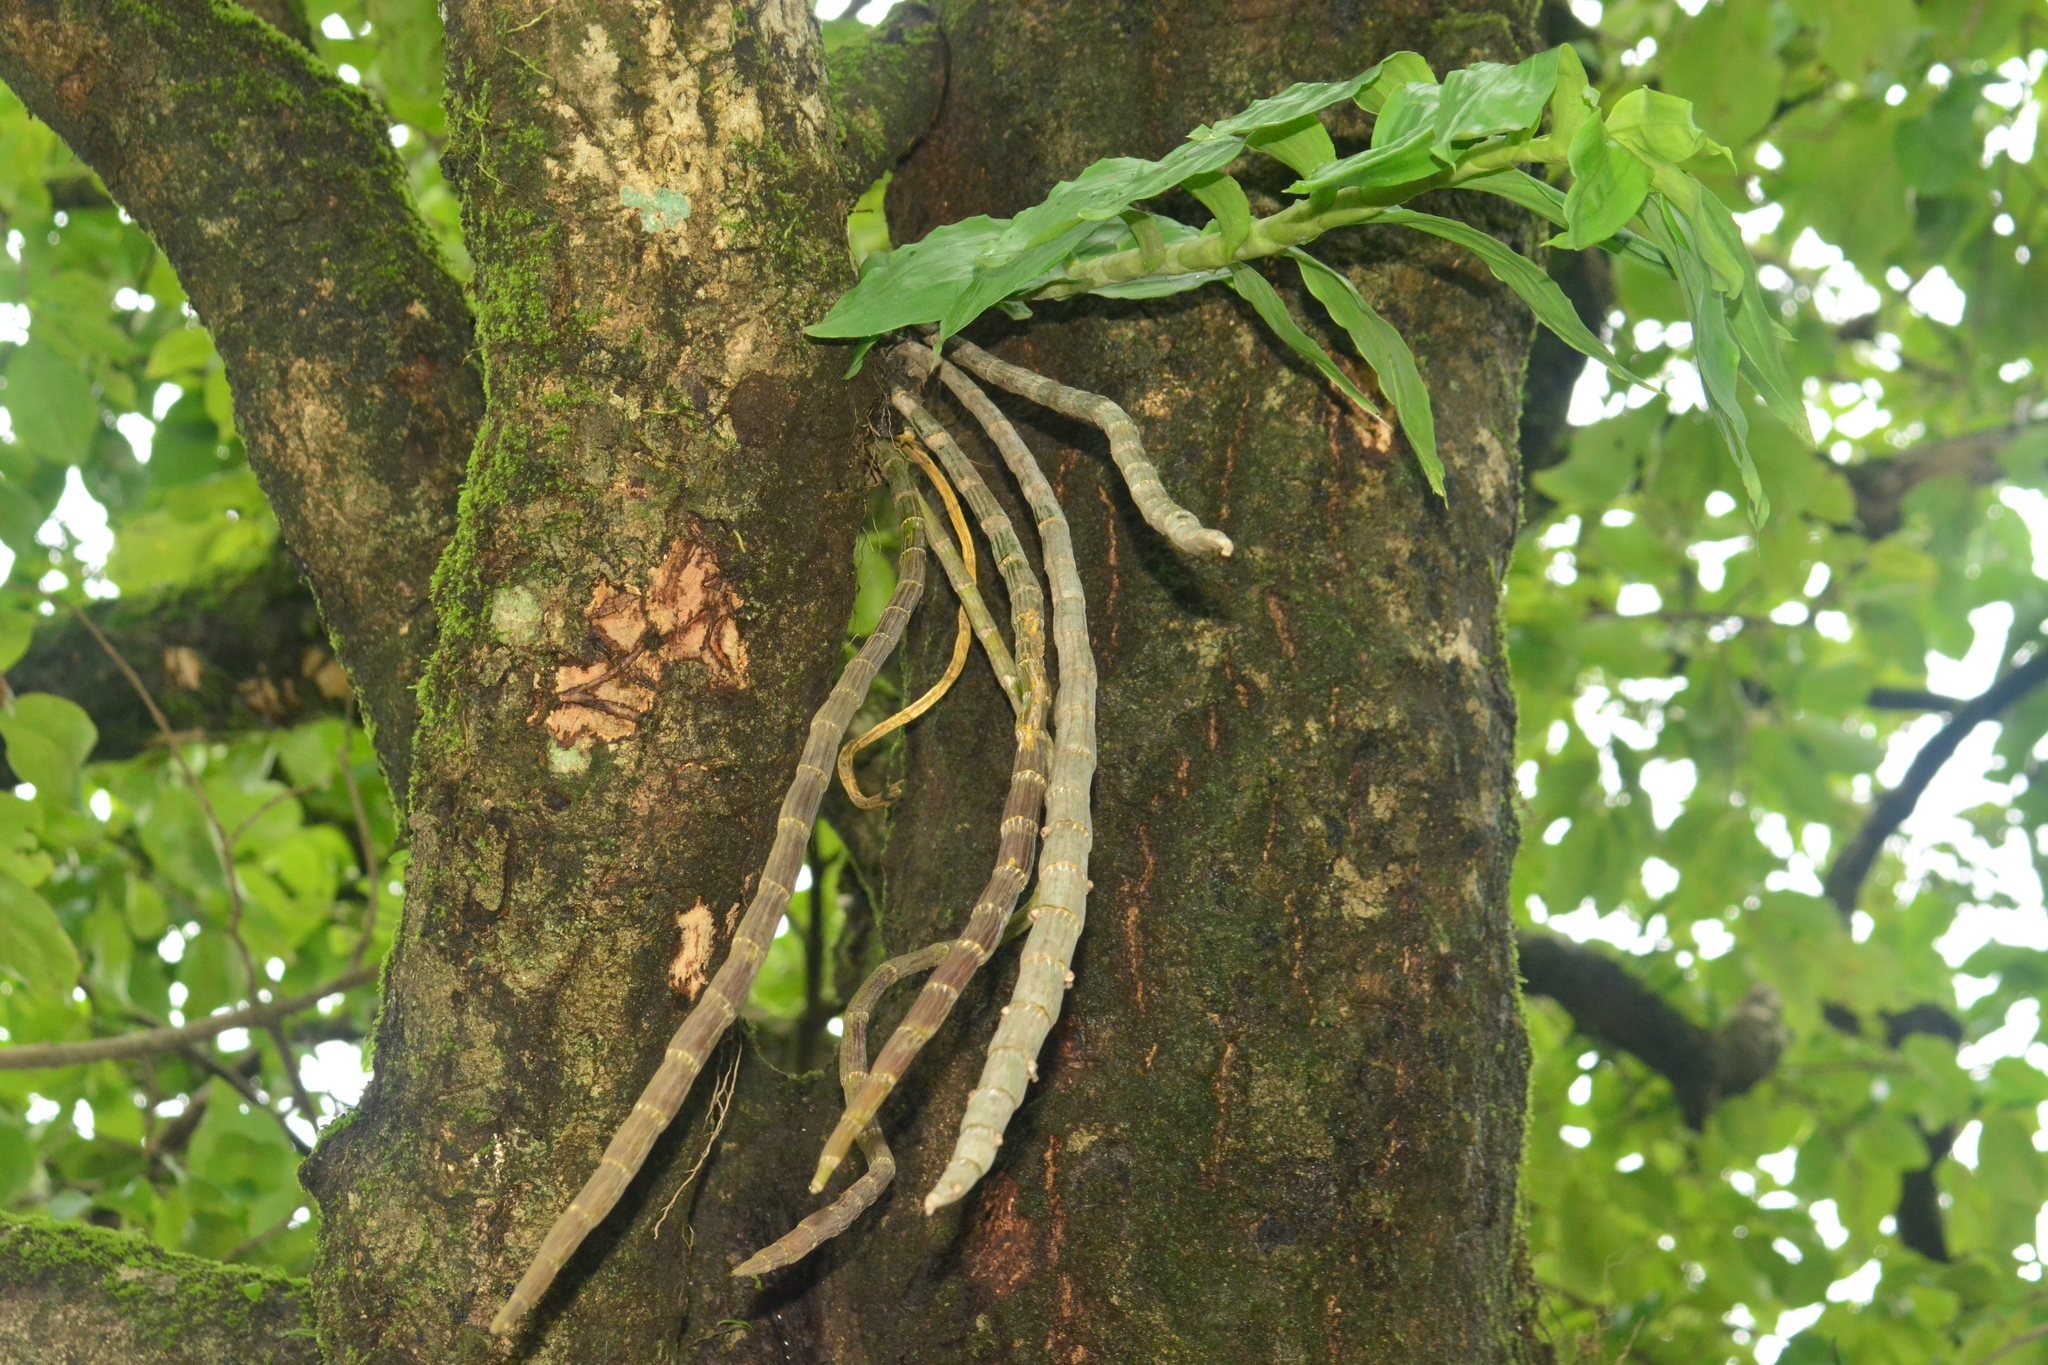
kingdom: Plantae
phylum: Tracheophyta
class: Liliopsida
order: Asparagales
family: Orchidaceae
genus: Dendrobium
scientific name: Dendrobium aqueum
